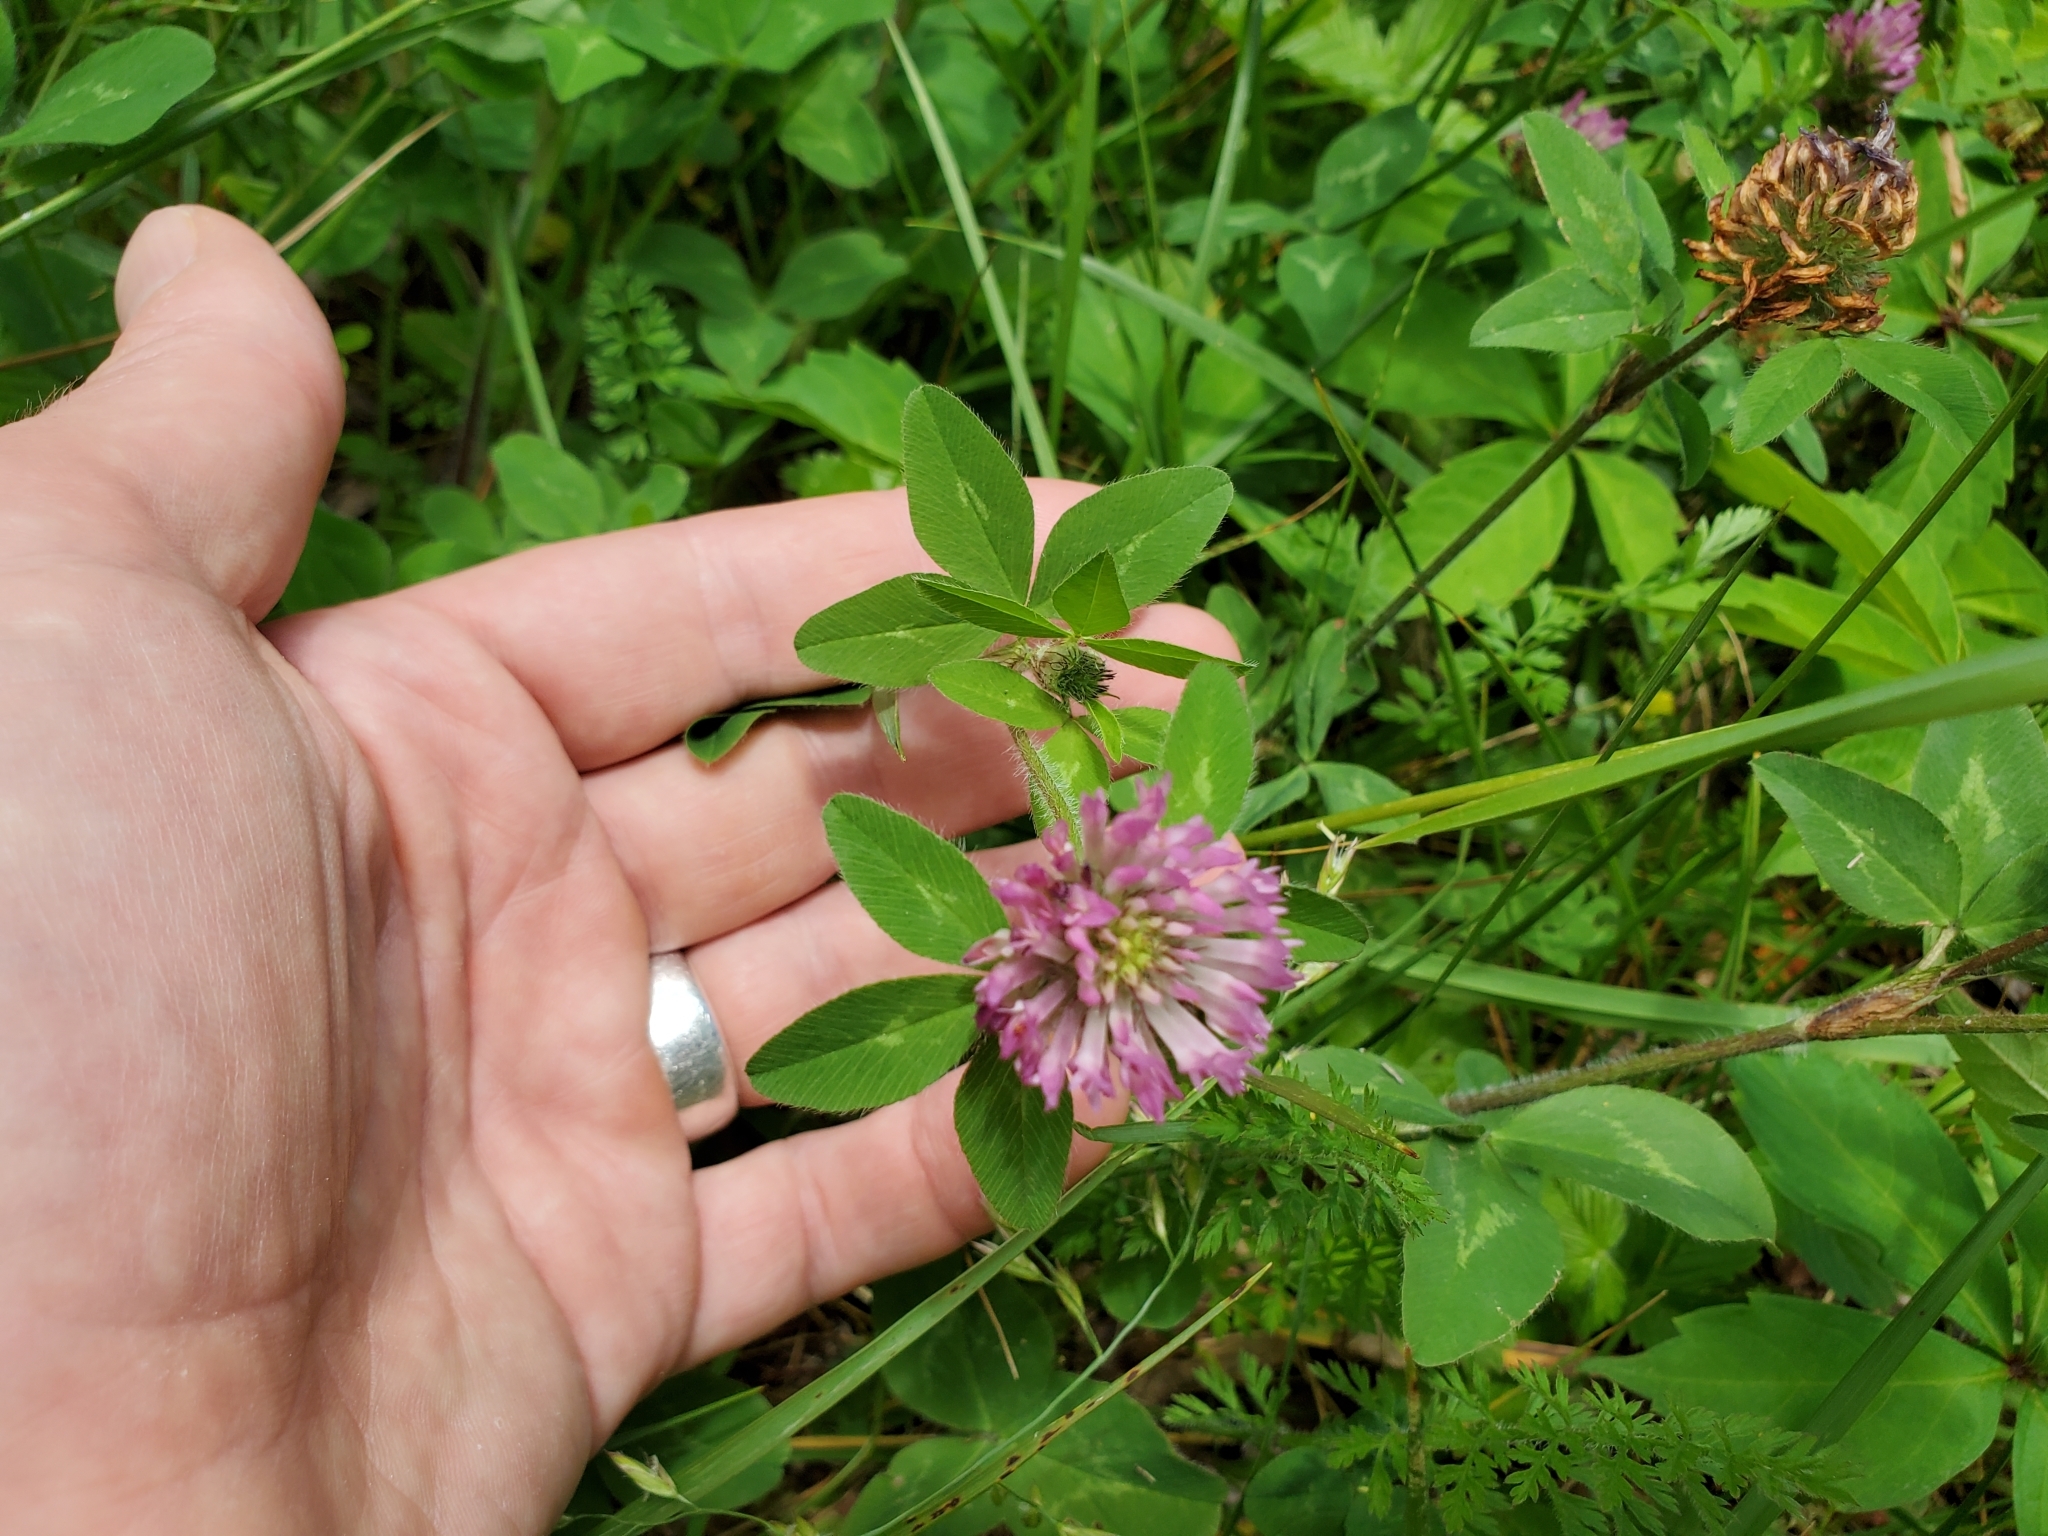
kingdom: Plantae
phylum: Tracheophyta
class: Magnoliopsida
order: Fabales
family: Fabaceae
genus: Trifolium
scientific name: Trifolium pratense
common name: Red clover
